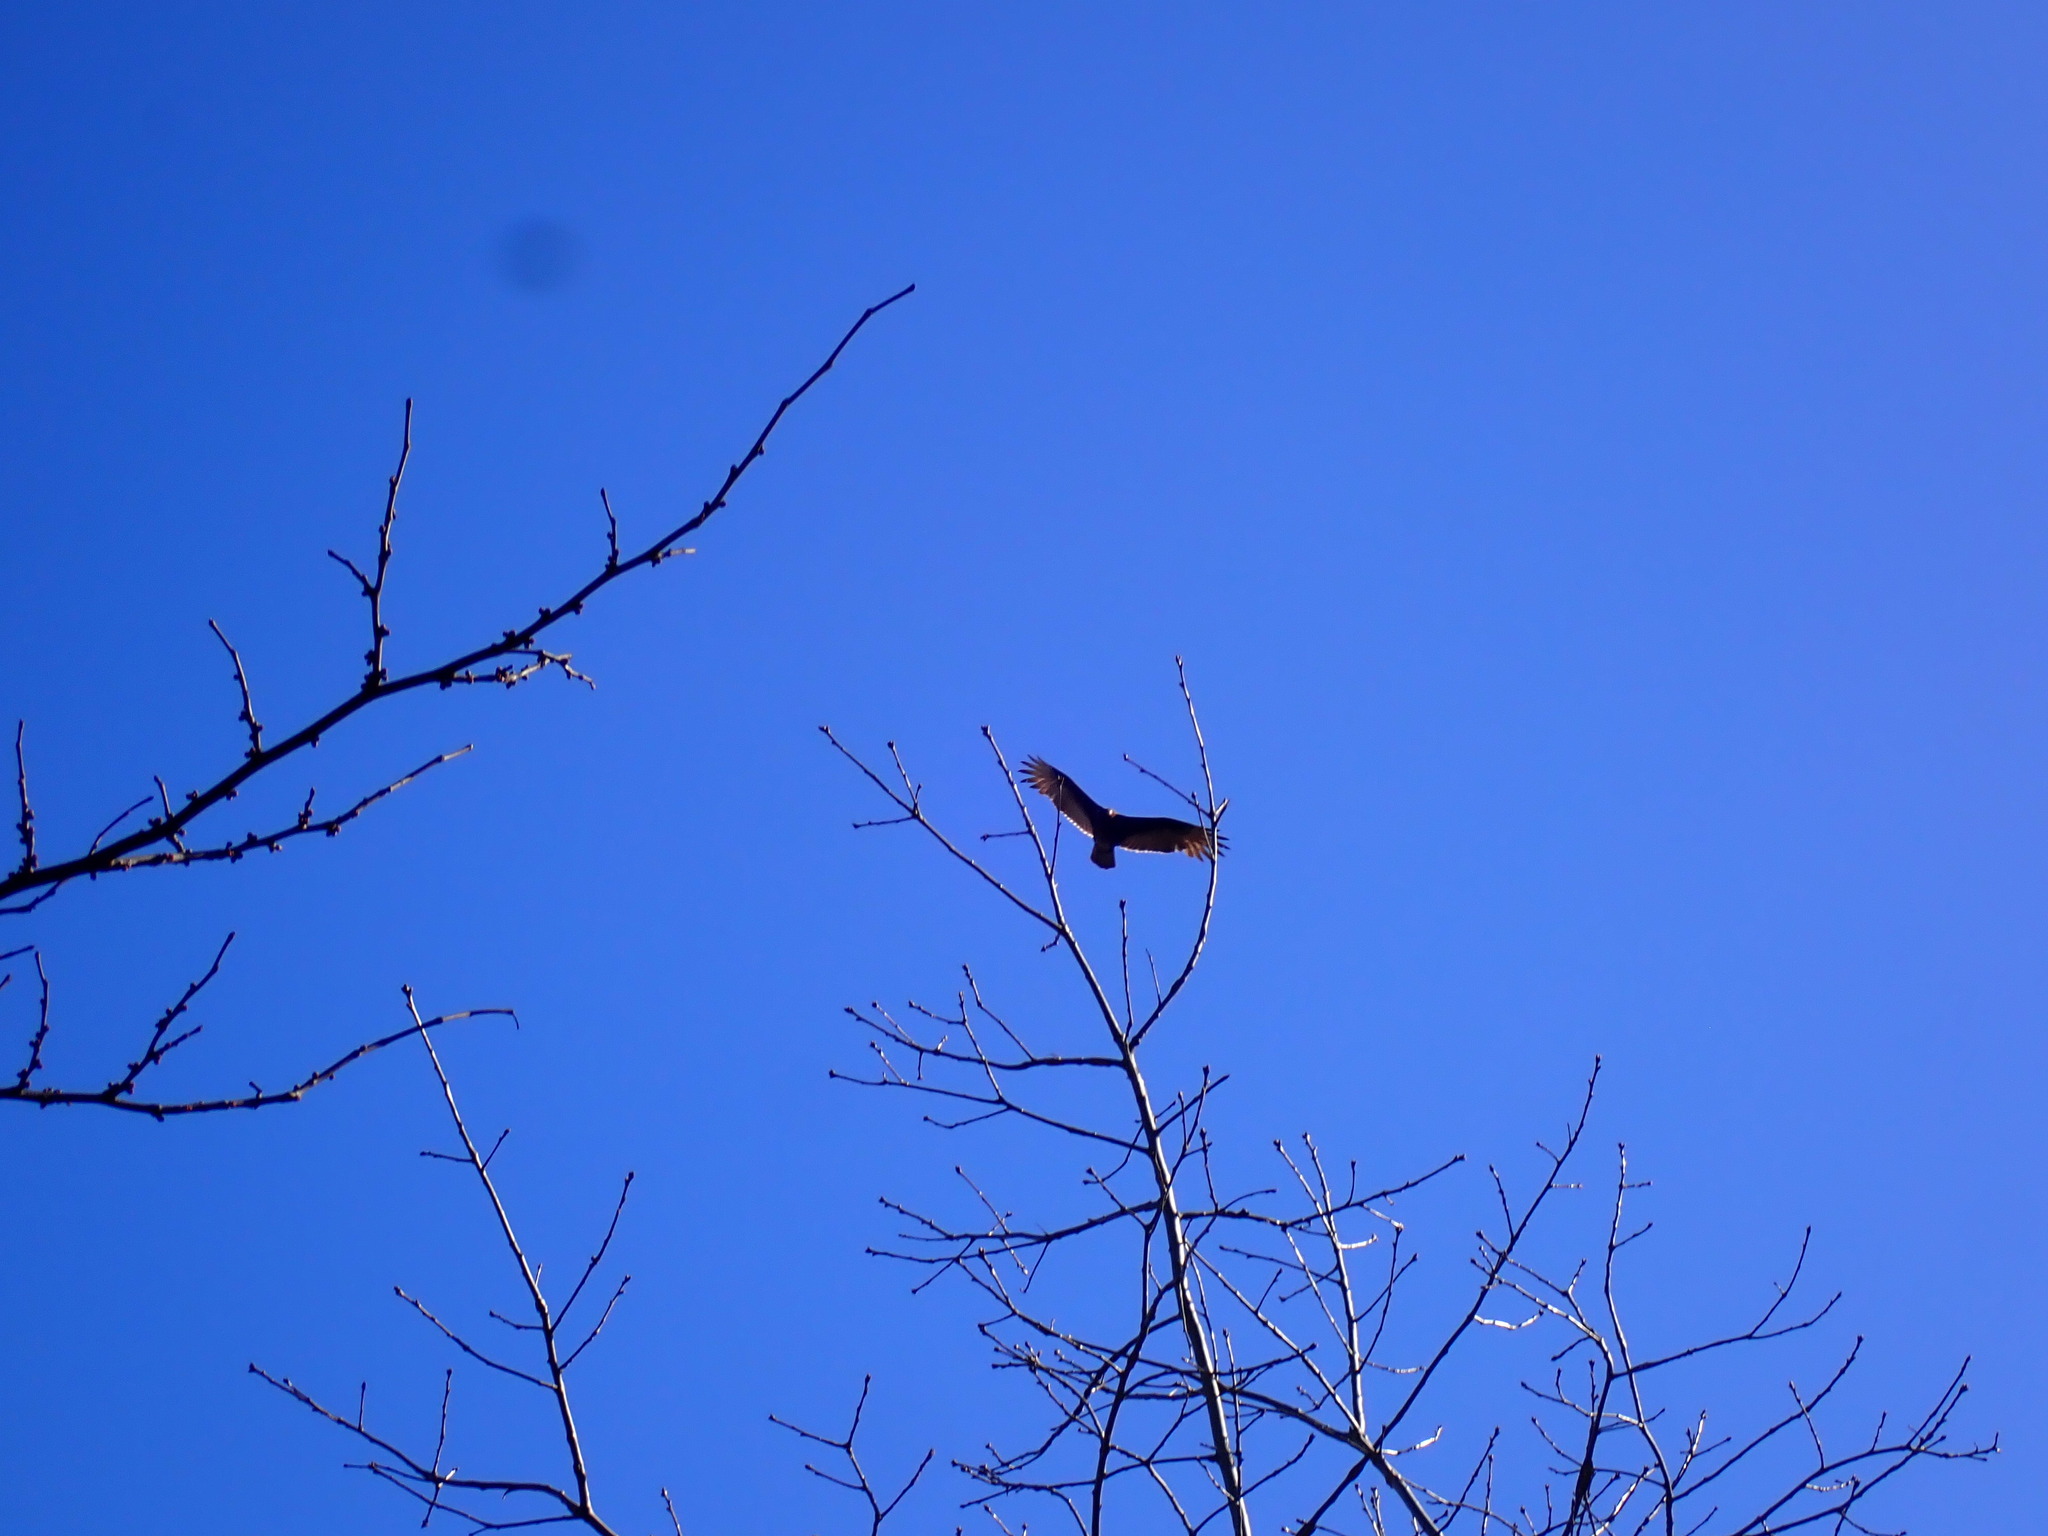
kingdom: Animalia
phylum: Chordata
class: Aves
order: Accipitriformes
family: Cathartidae
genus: Cathartes
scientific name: Cathartes aura
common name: Turkey vulture
